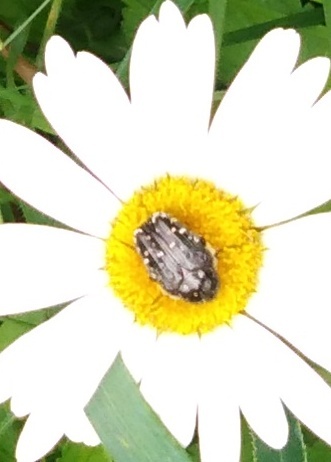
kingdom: Animalia
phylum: Arthropoda
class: Insecta
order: Coleoptera
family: Scarabaeidae
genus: Oxythyrea
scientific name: Oxythyrea funesta
